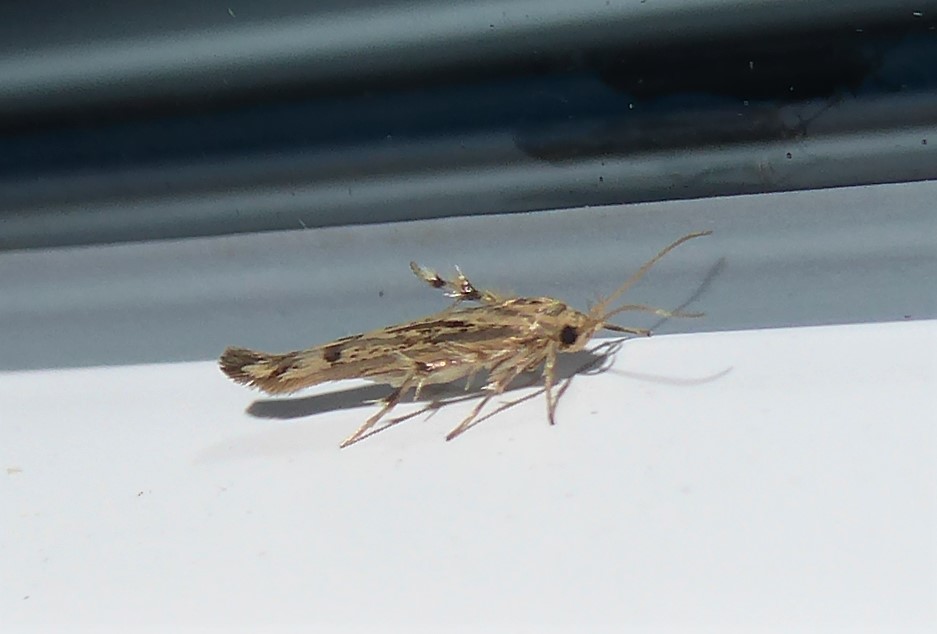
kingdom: Animalia
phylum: Arthropoda
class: Insecta
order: Lepidoptera
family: Stathmopodidae
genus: Stathmopoda
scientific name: Stathmopoda plumbiflua
